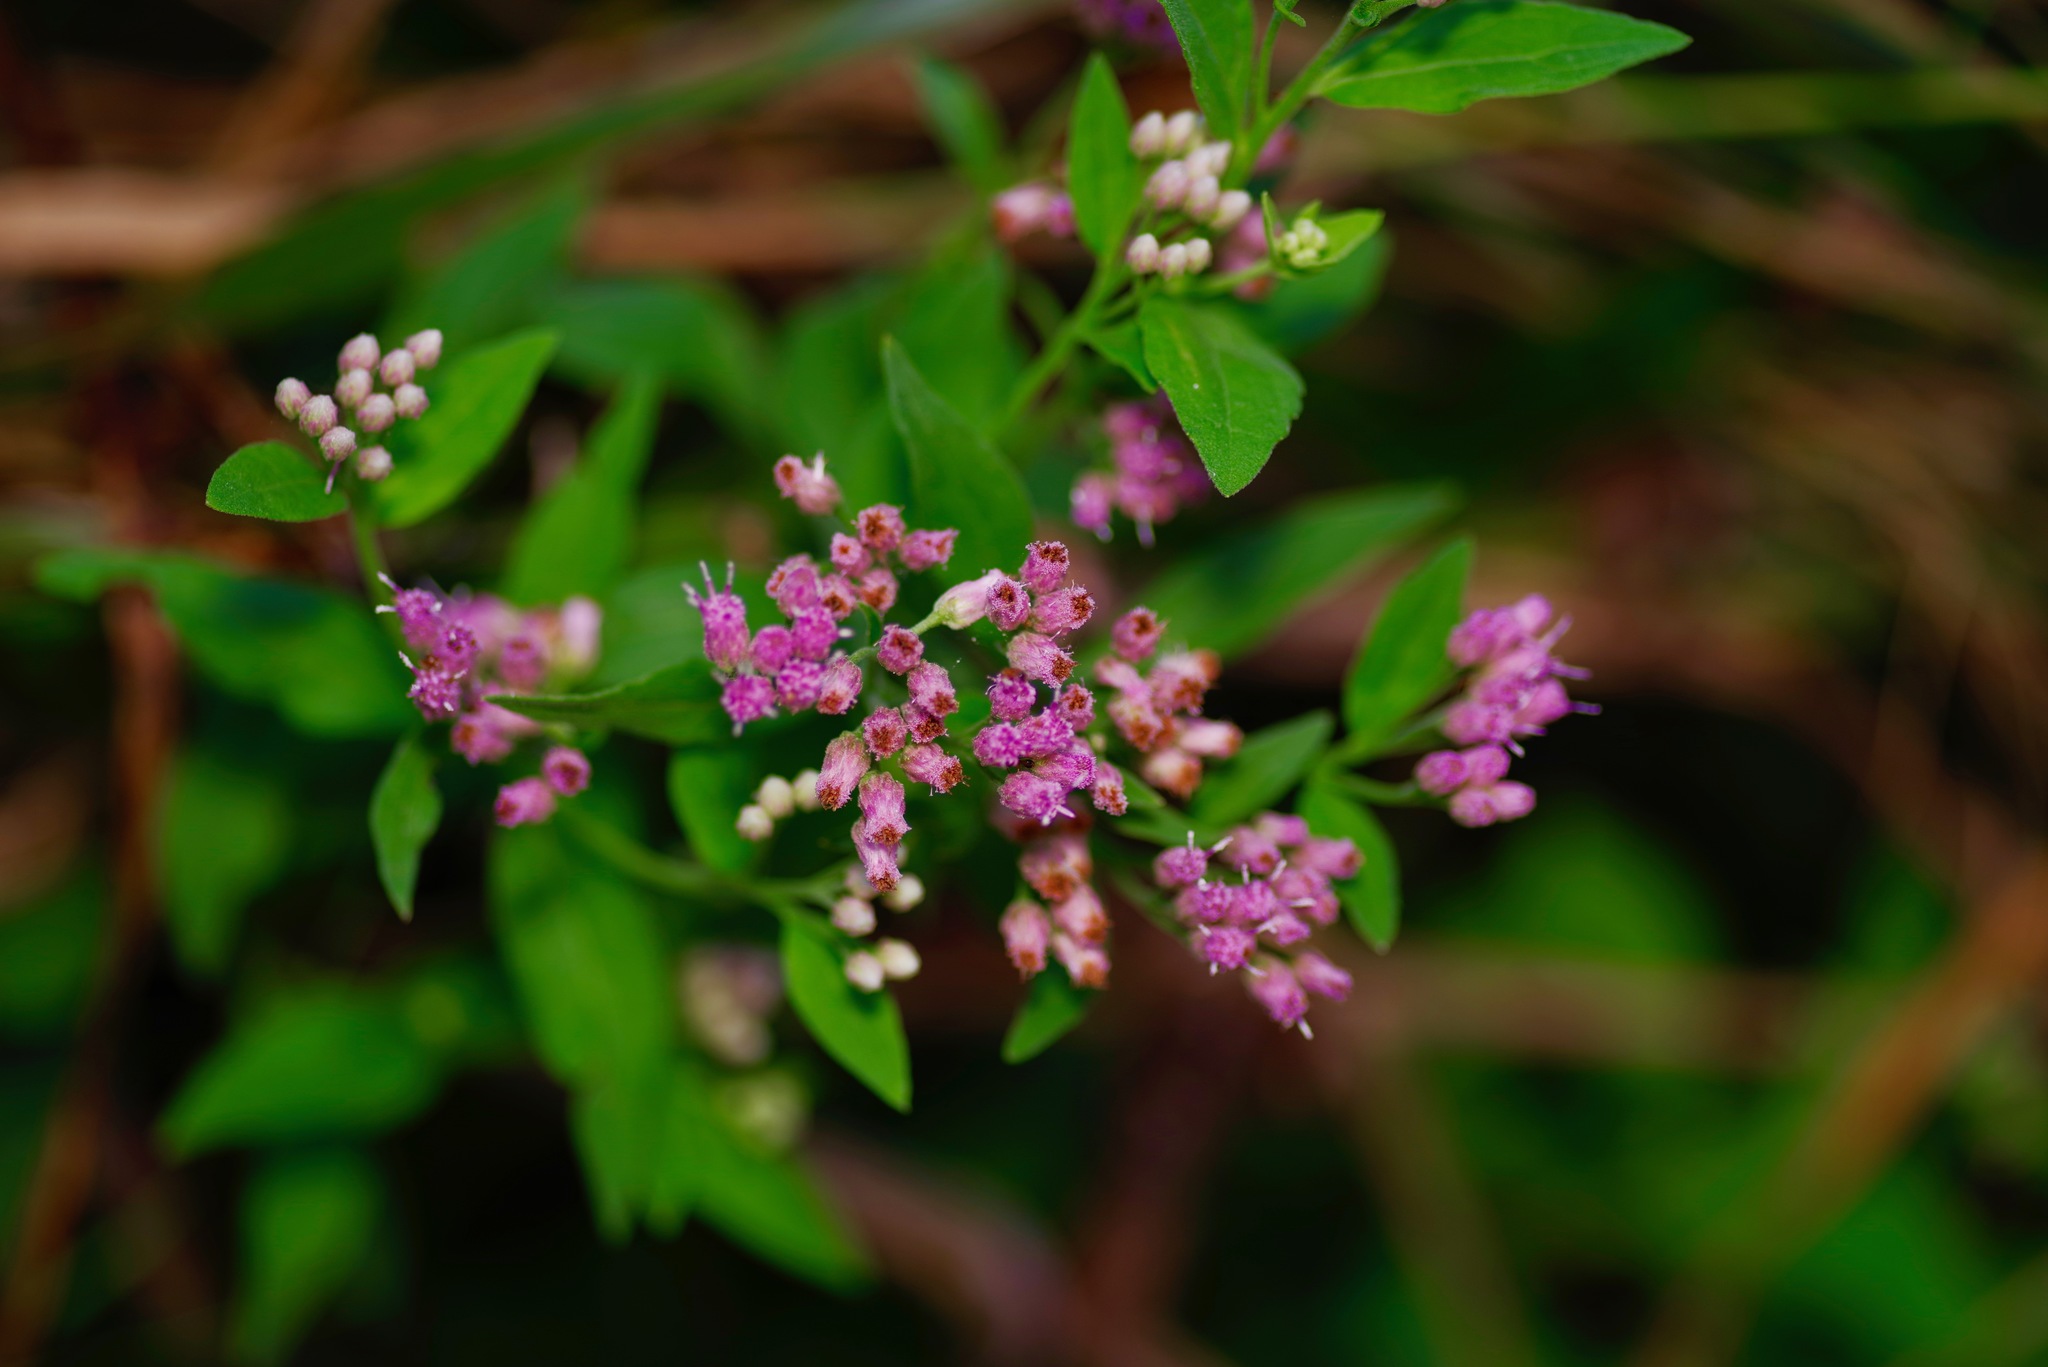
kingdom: Plantae
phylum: Tracheophyta
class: Magnoliopsida
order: Asterales
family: Asteraceae
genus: Pluchea
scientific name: Pluchea odorata
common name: Saltmarsh fleabane
